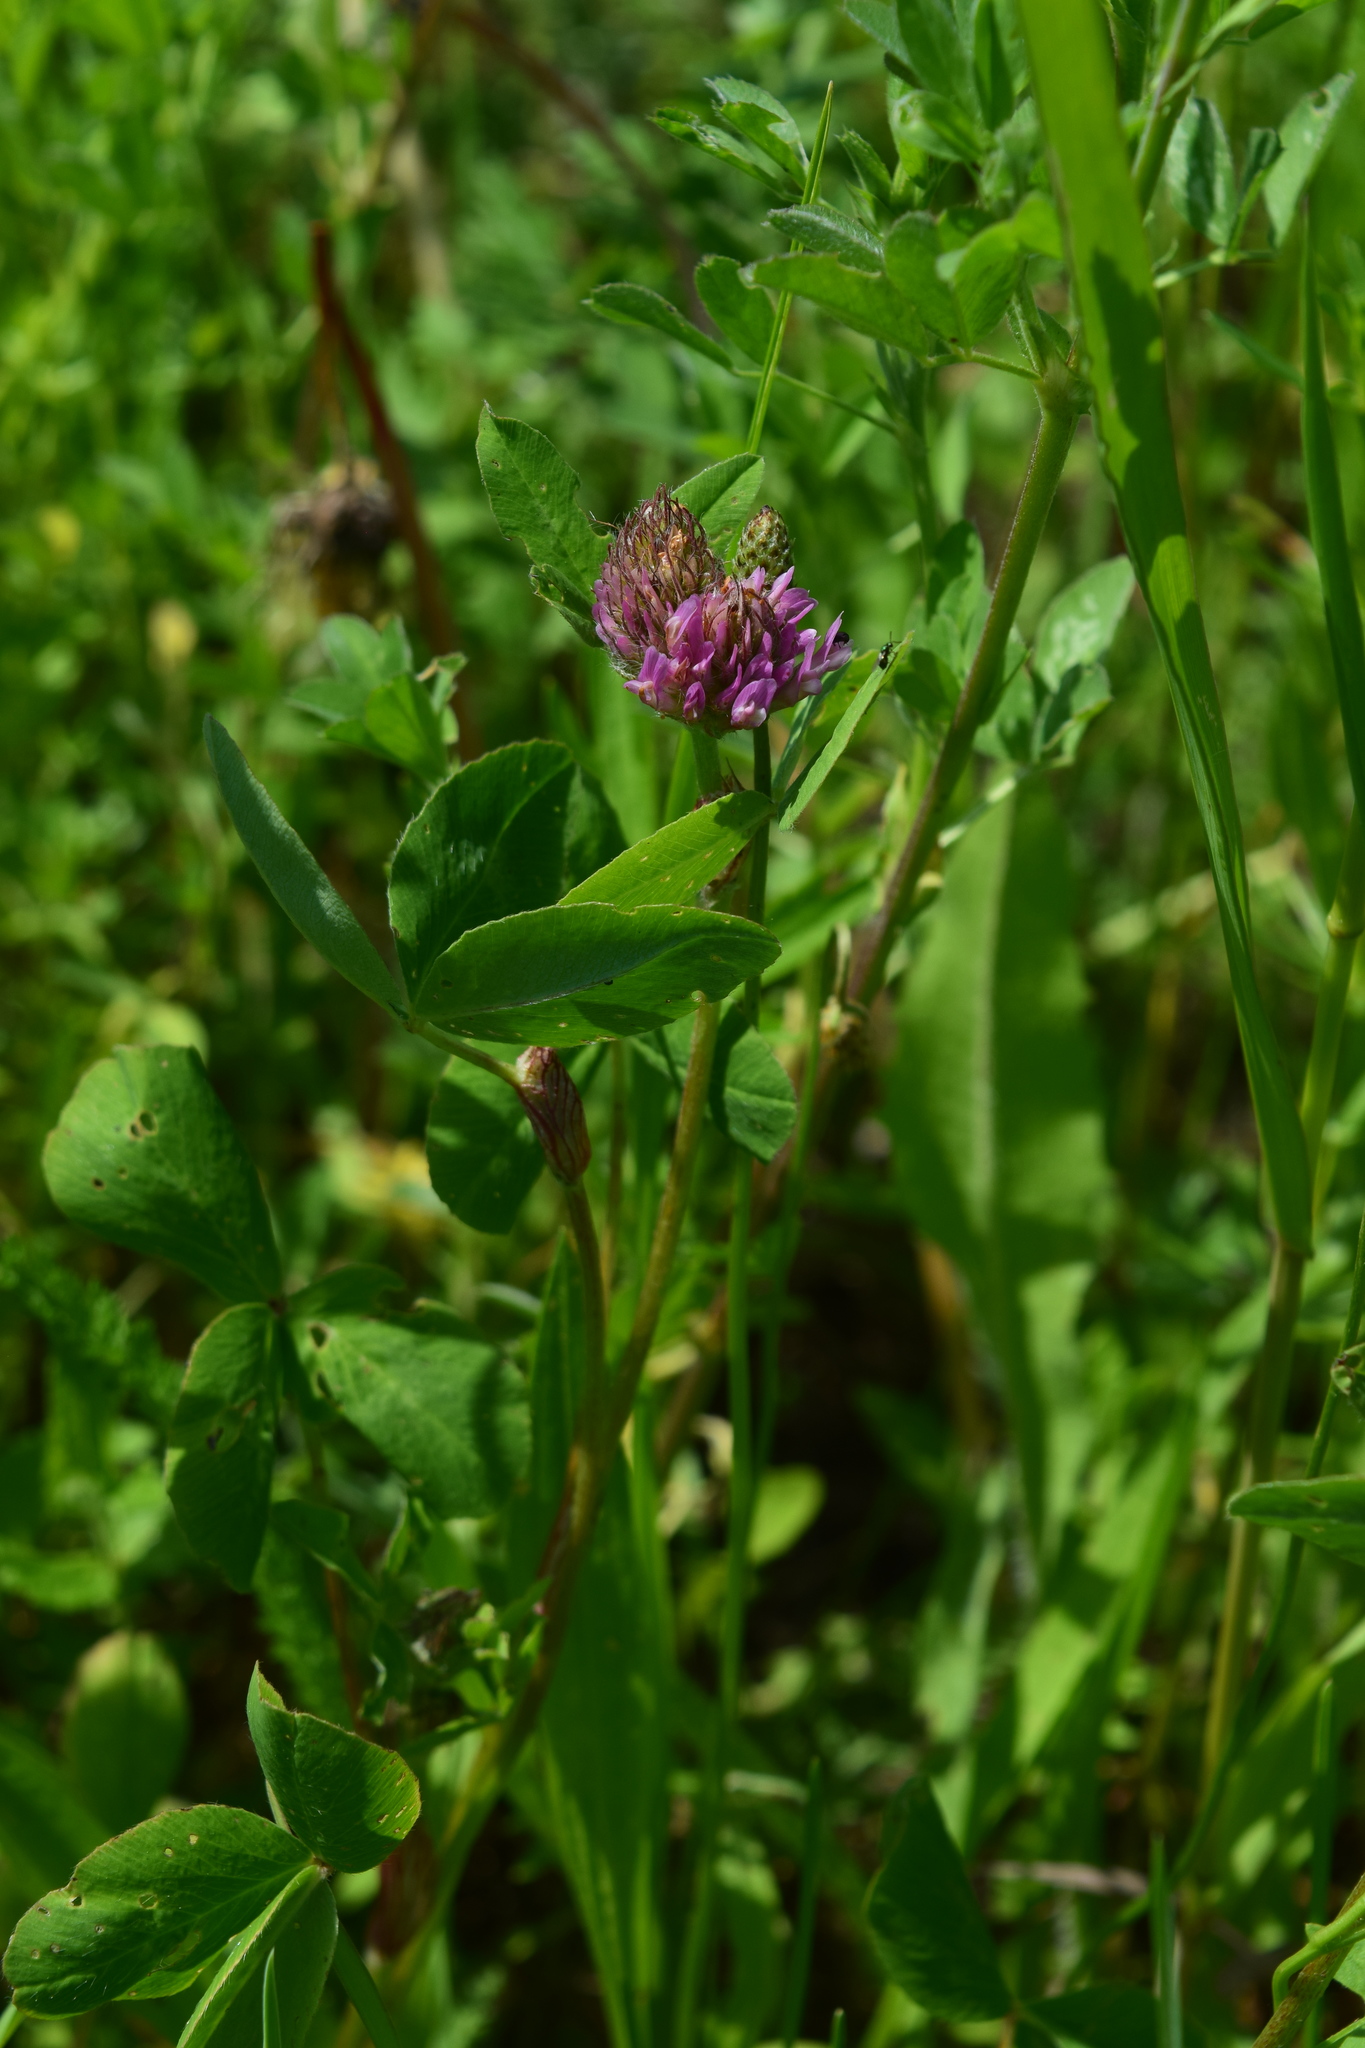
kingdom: Plantae
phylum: Tracheophyta
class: Magnoliopsida
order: Fabales
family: Fabaceae
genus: Trifolium
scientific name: Trifolium pratense
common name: Red clover
